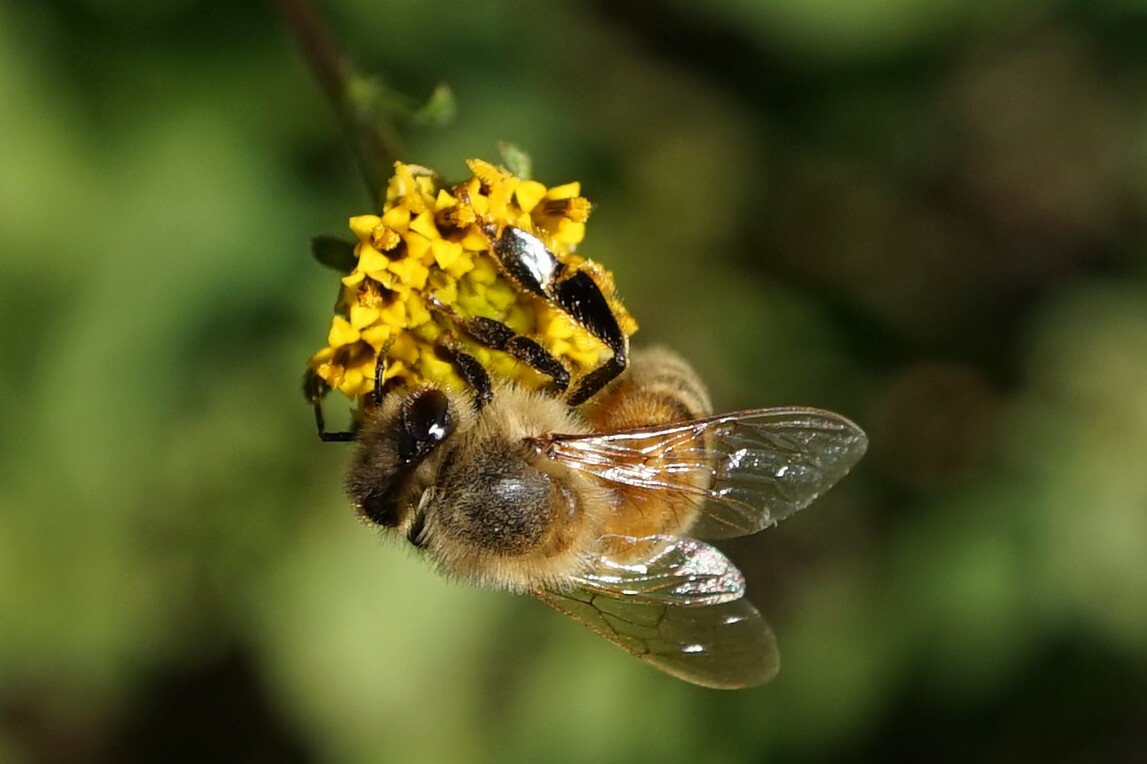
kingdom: Animalia
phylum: Arthropoda
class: Insecta
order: Hymenoptera
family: Apidae
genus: Apis
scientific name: Apis mellifera
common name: Honey bee
